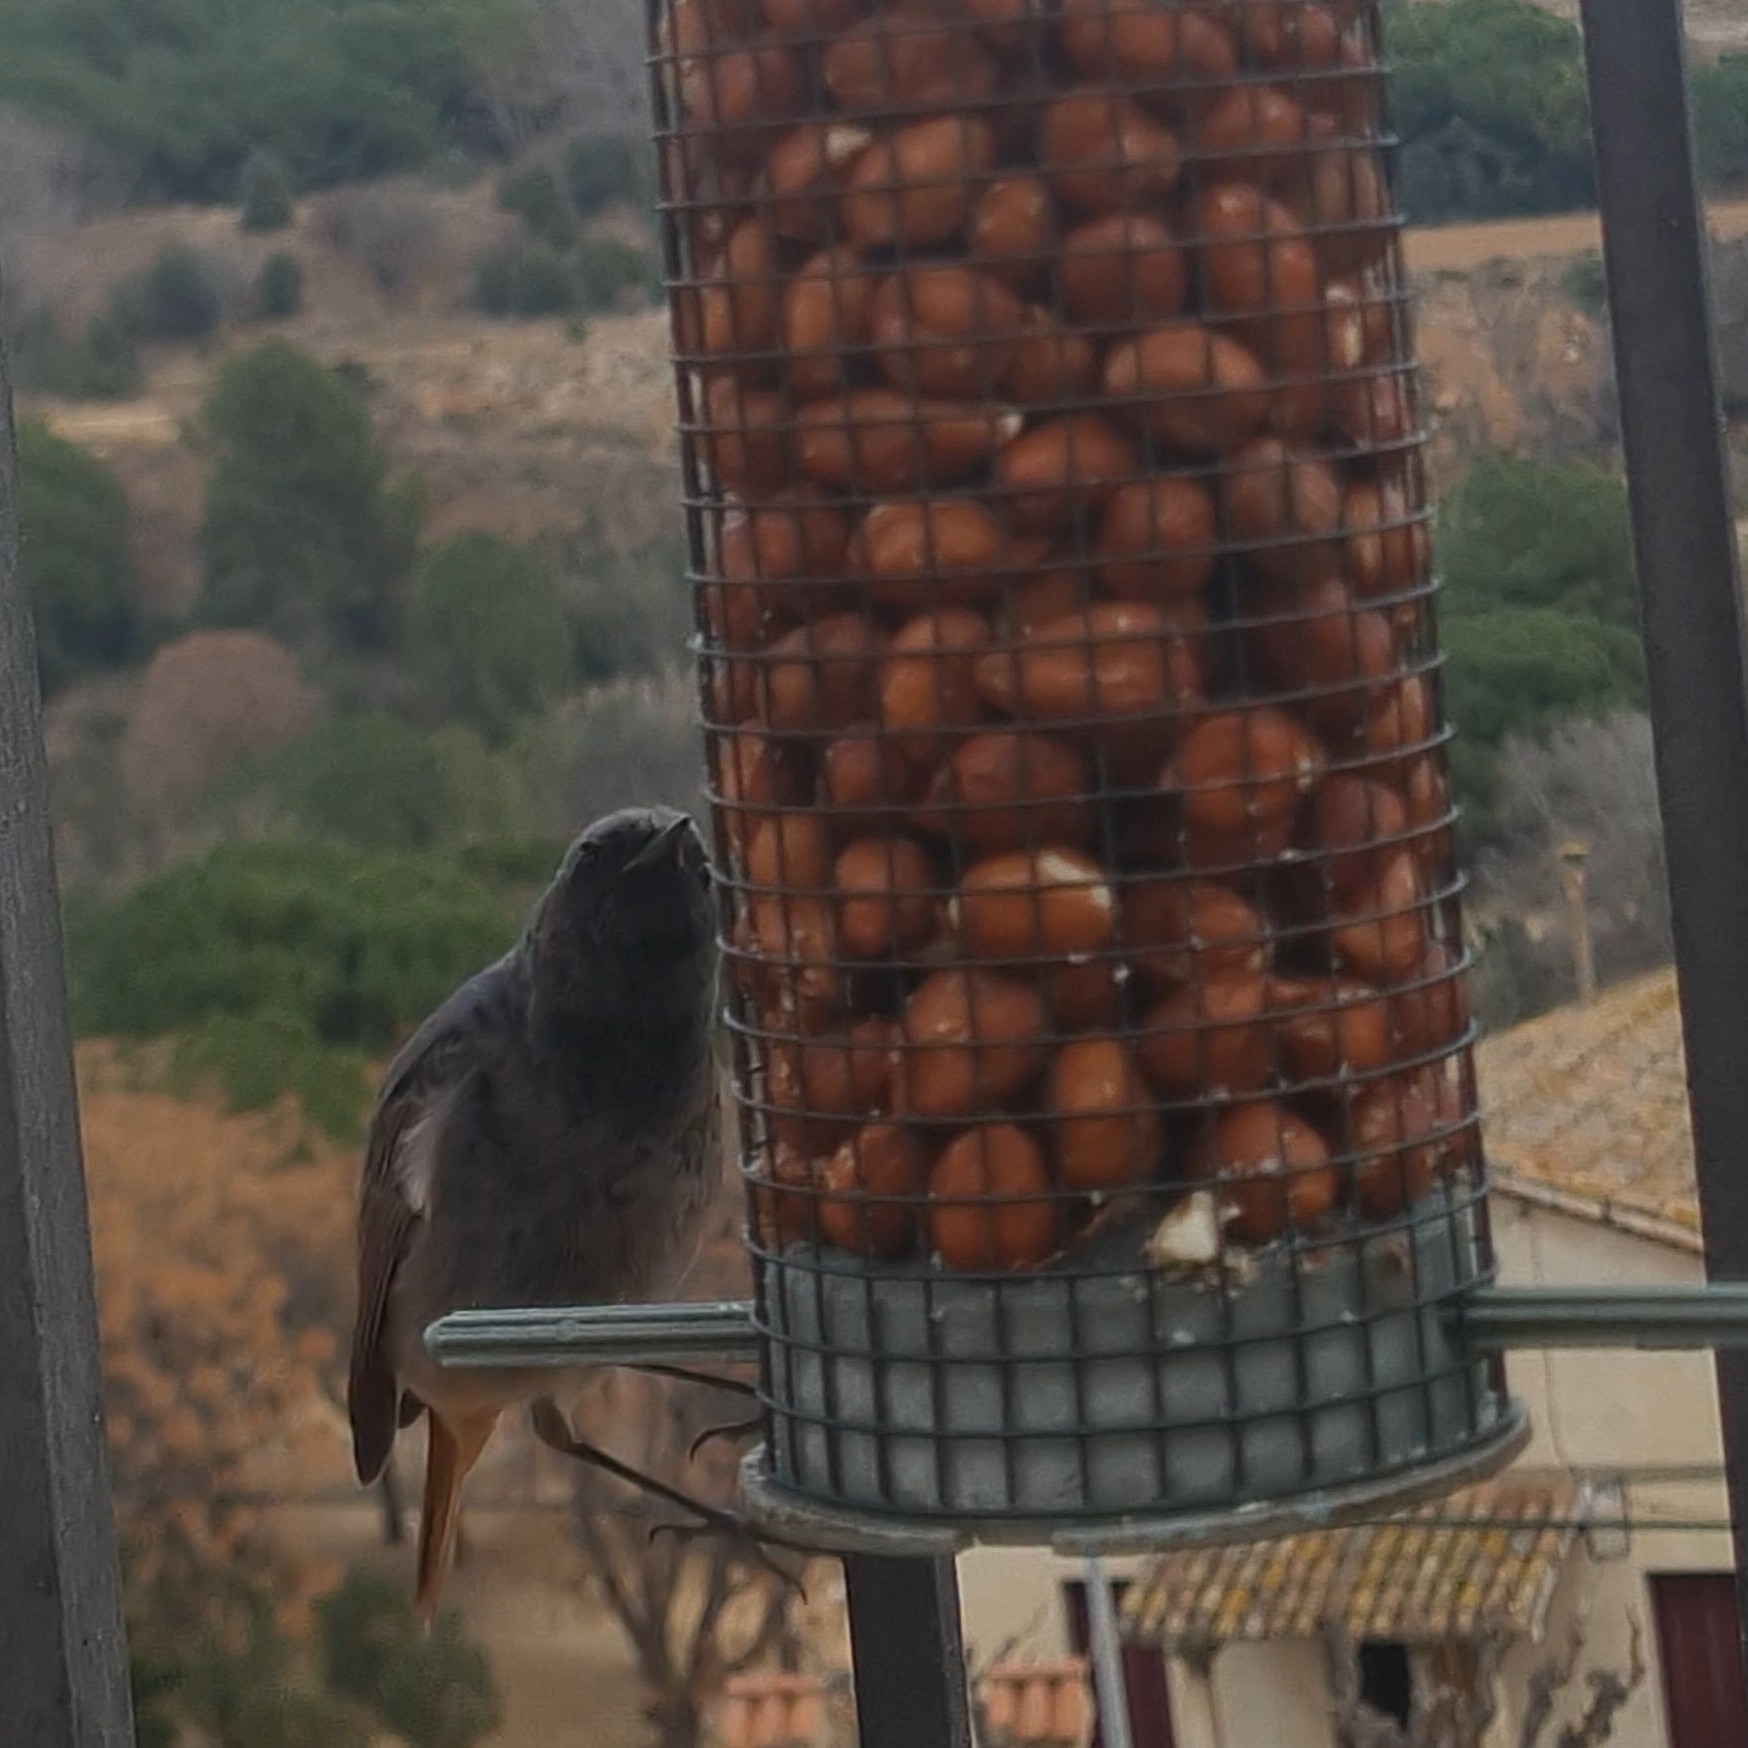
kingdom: Animalia
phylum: Chordata
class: Aves
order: Passeriformes
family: Muscicapidae
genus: Phoenicurus
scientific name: Phoenicurus ochruros
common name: Black redstart
